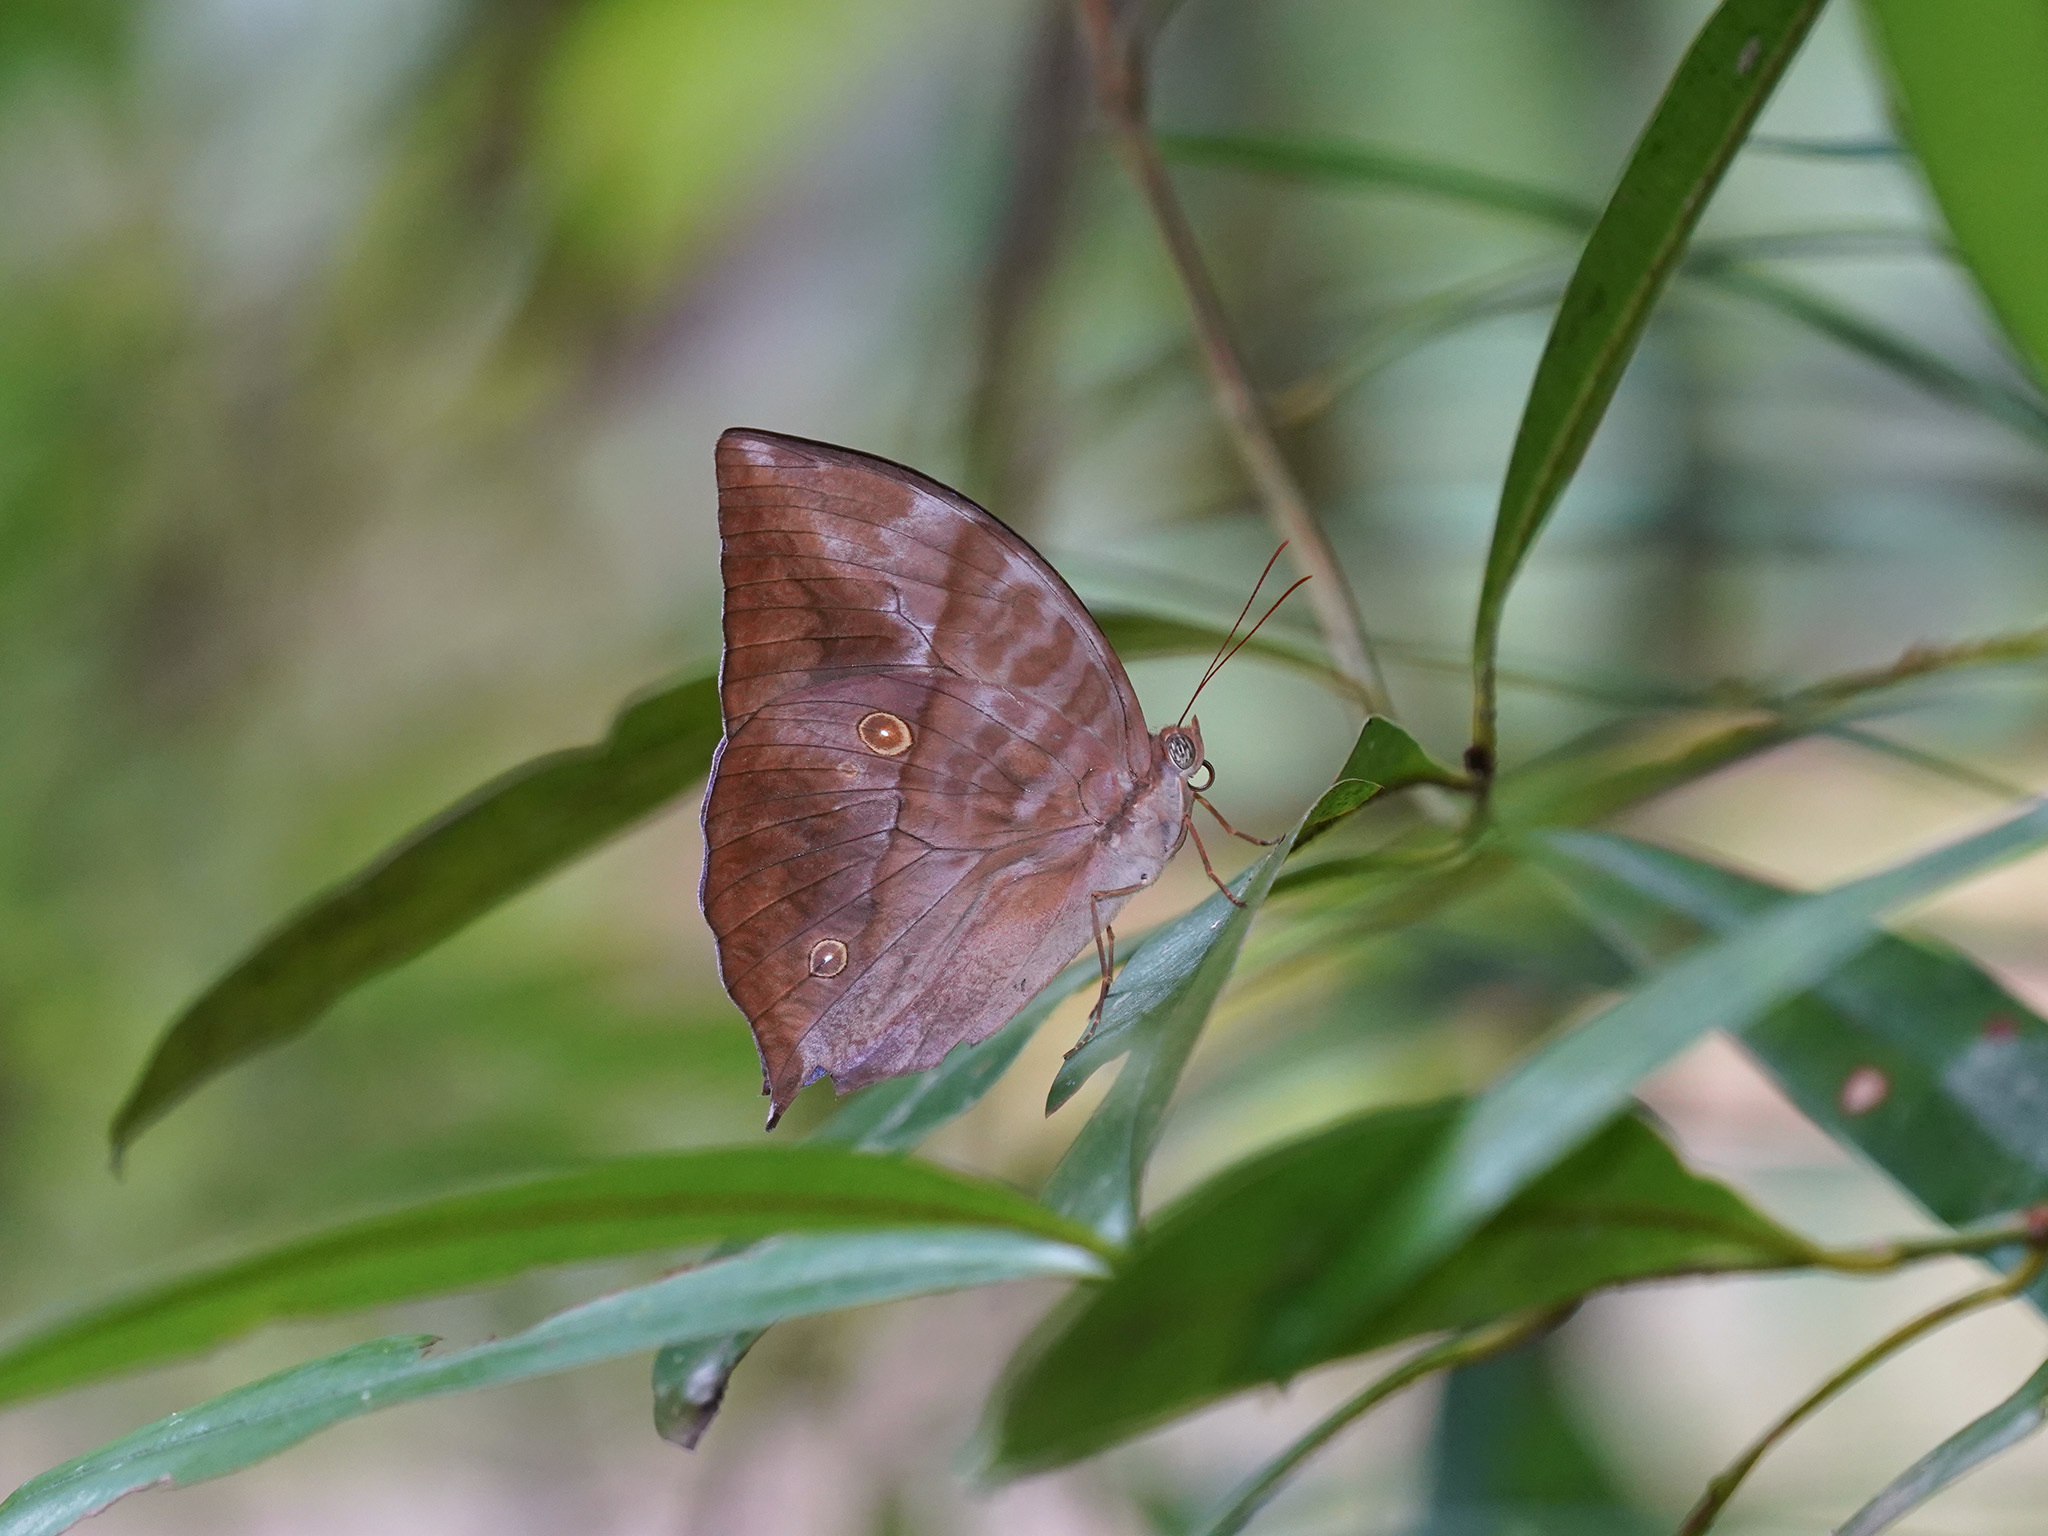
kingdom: Animalia
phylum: Arthropoda
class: Insecta
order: Lepidoptera
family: Nymphalidae
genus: Zeuxidia
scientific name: Zeuxidia amethysta
